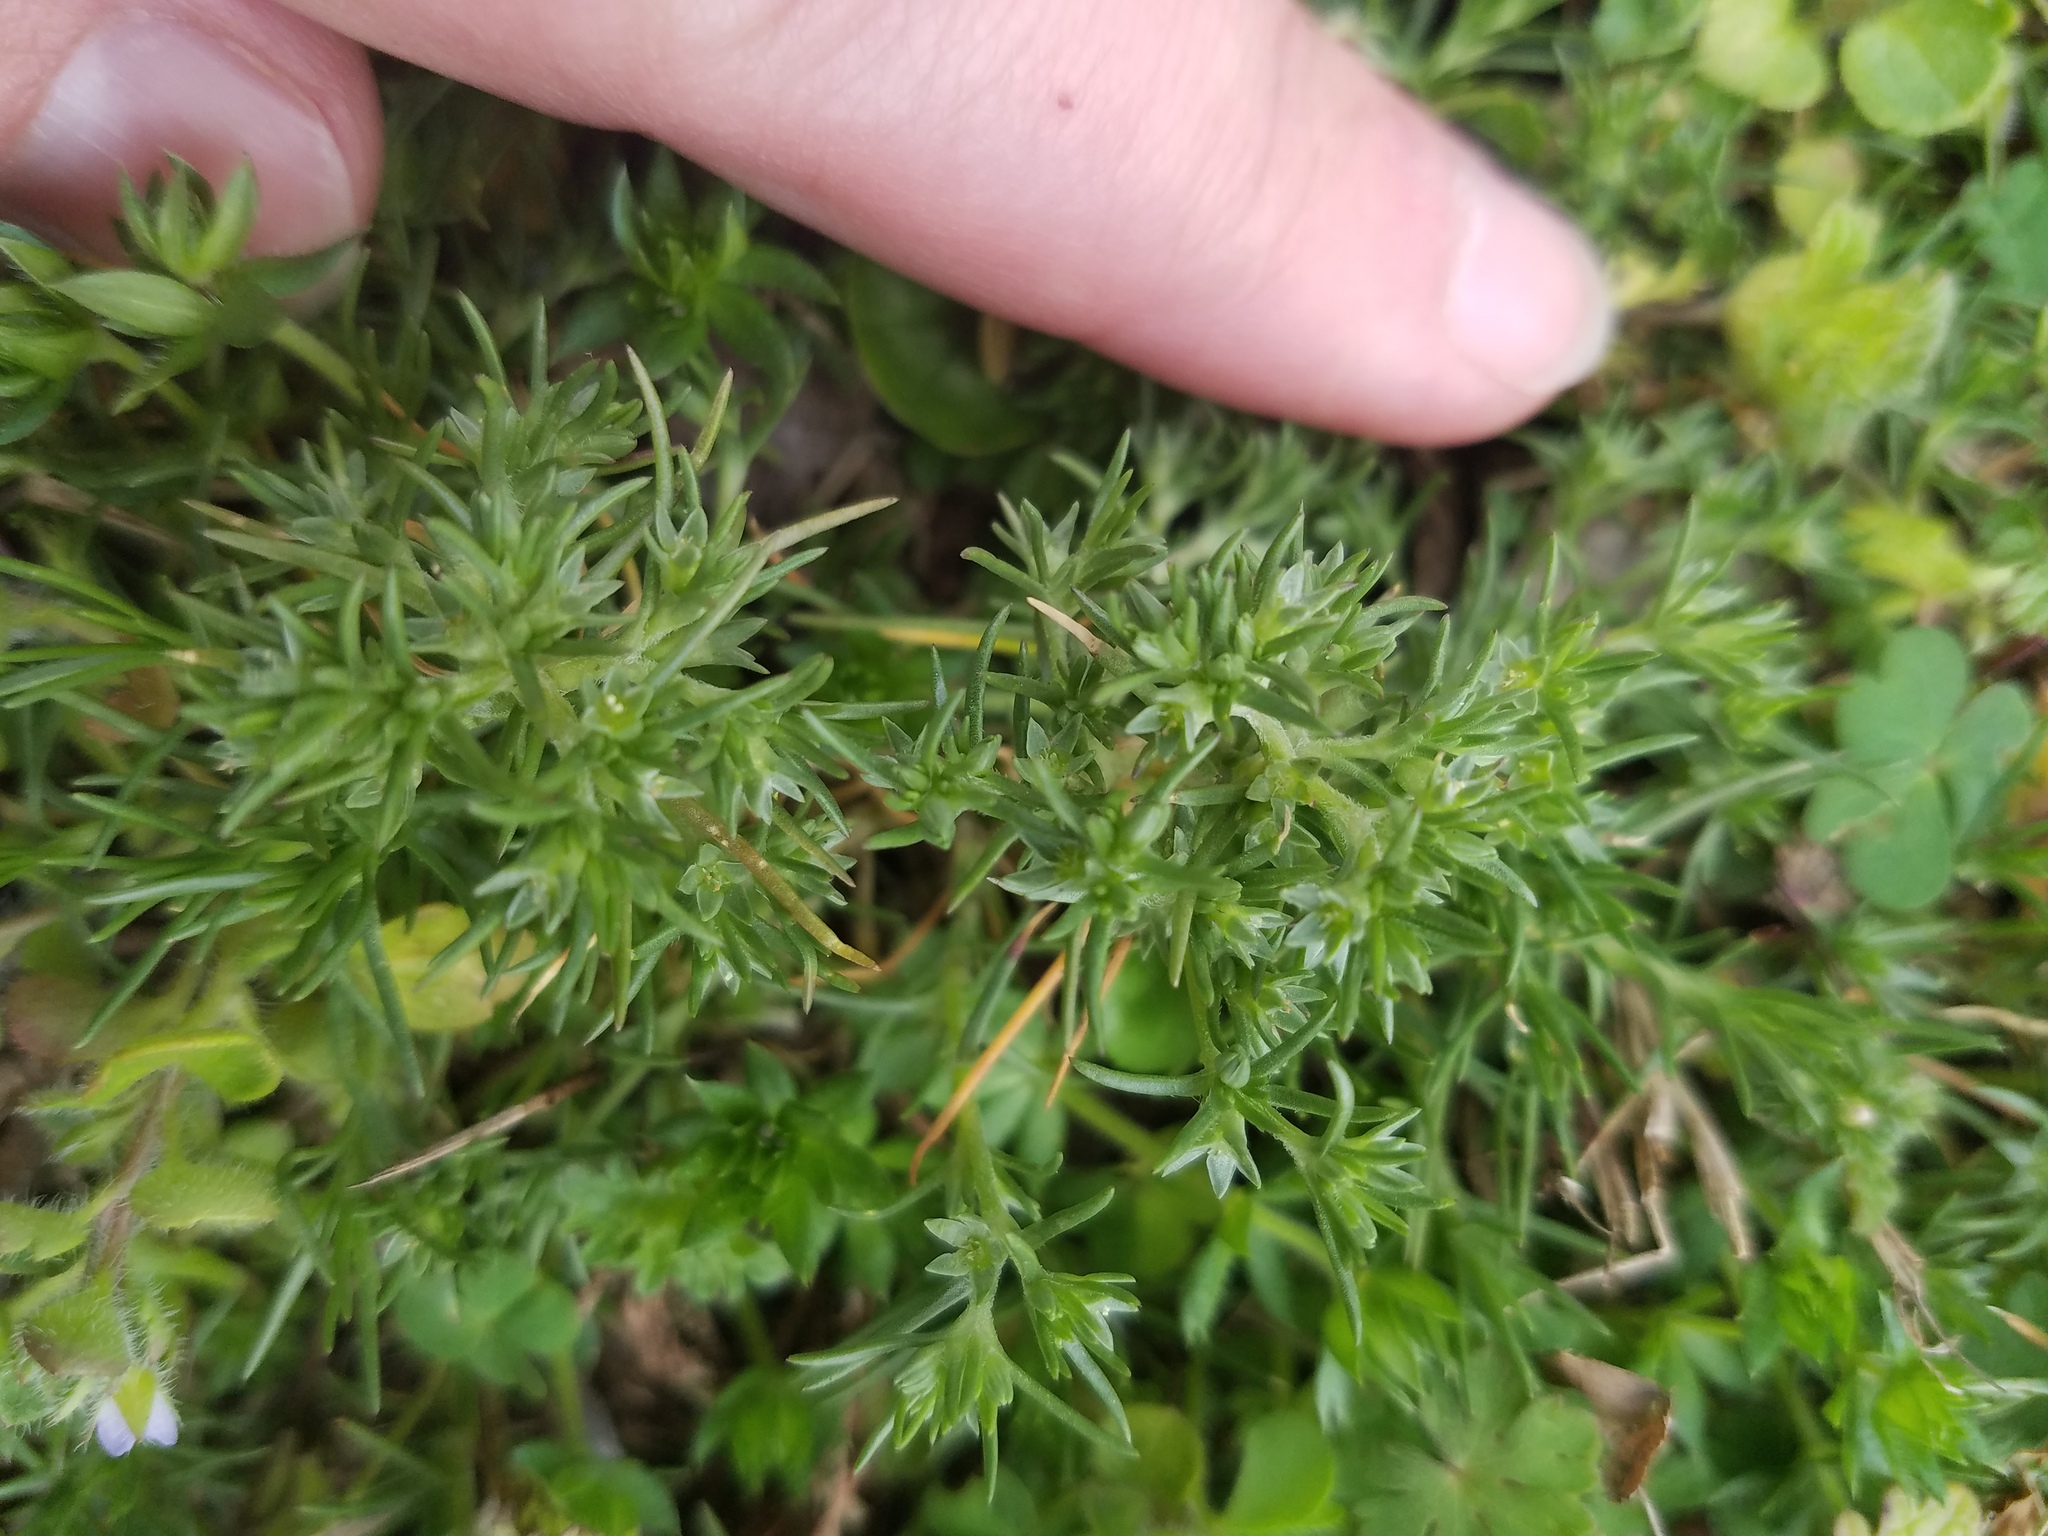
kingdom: Plantae
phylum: Tracheophyta
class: Magnoliopsida
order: Caryophyllales
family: Caryophyllaceae
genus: Scleranthus
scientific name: Scleranthus annuus
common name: Annual knawel
